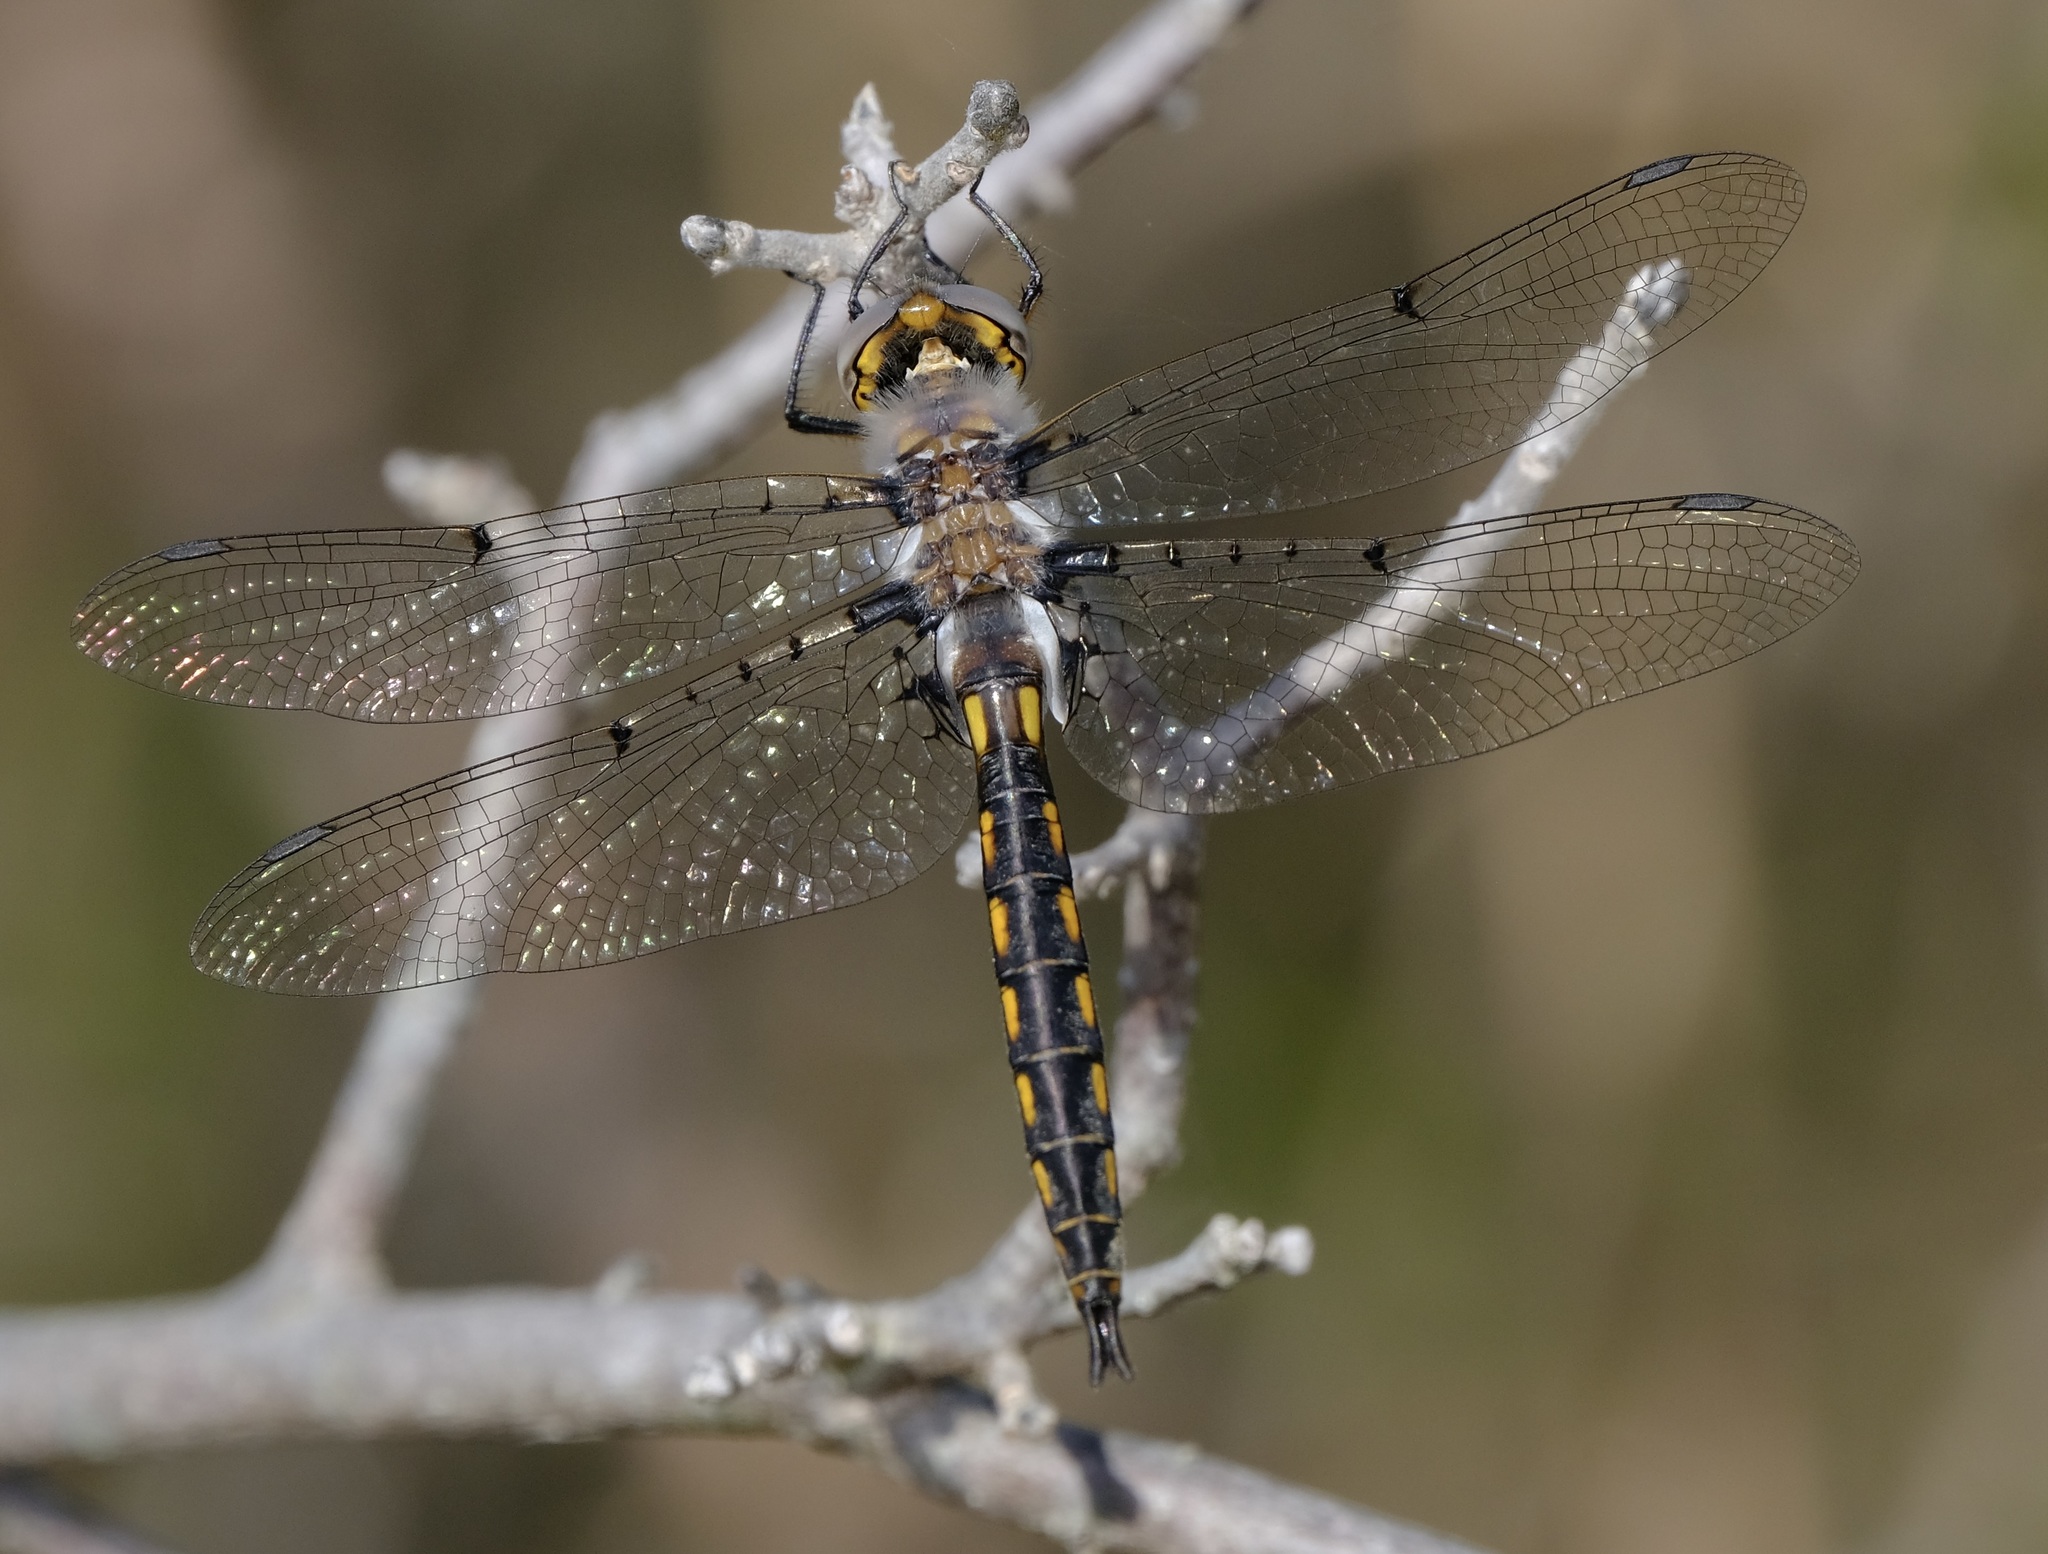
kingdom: Animalia
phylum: Arthropoda
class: Insecta
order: Odonata
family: Corduliidae
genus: Epitheca
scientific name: Epitheca petechialis
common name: Dot-winged baskettail
